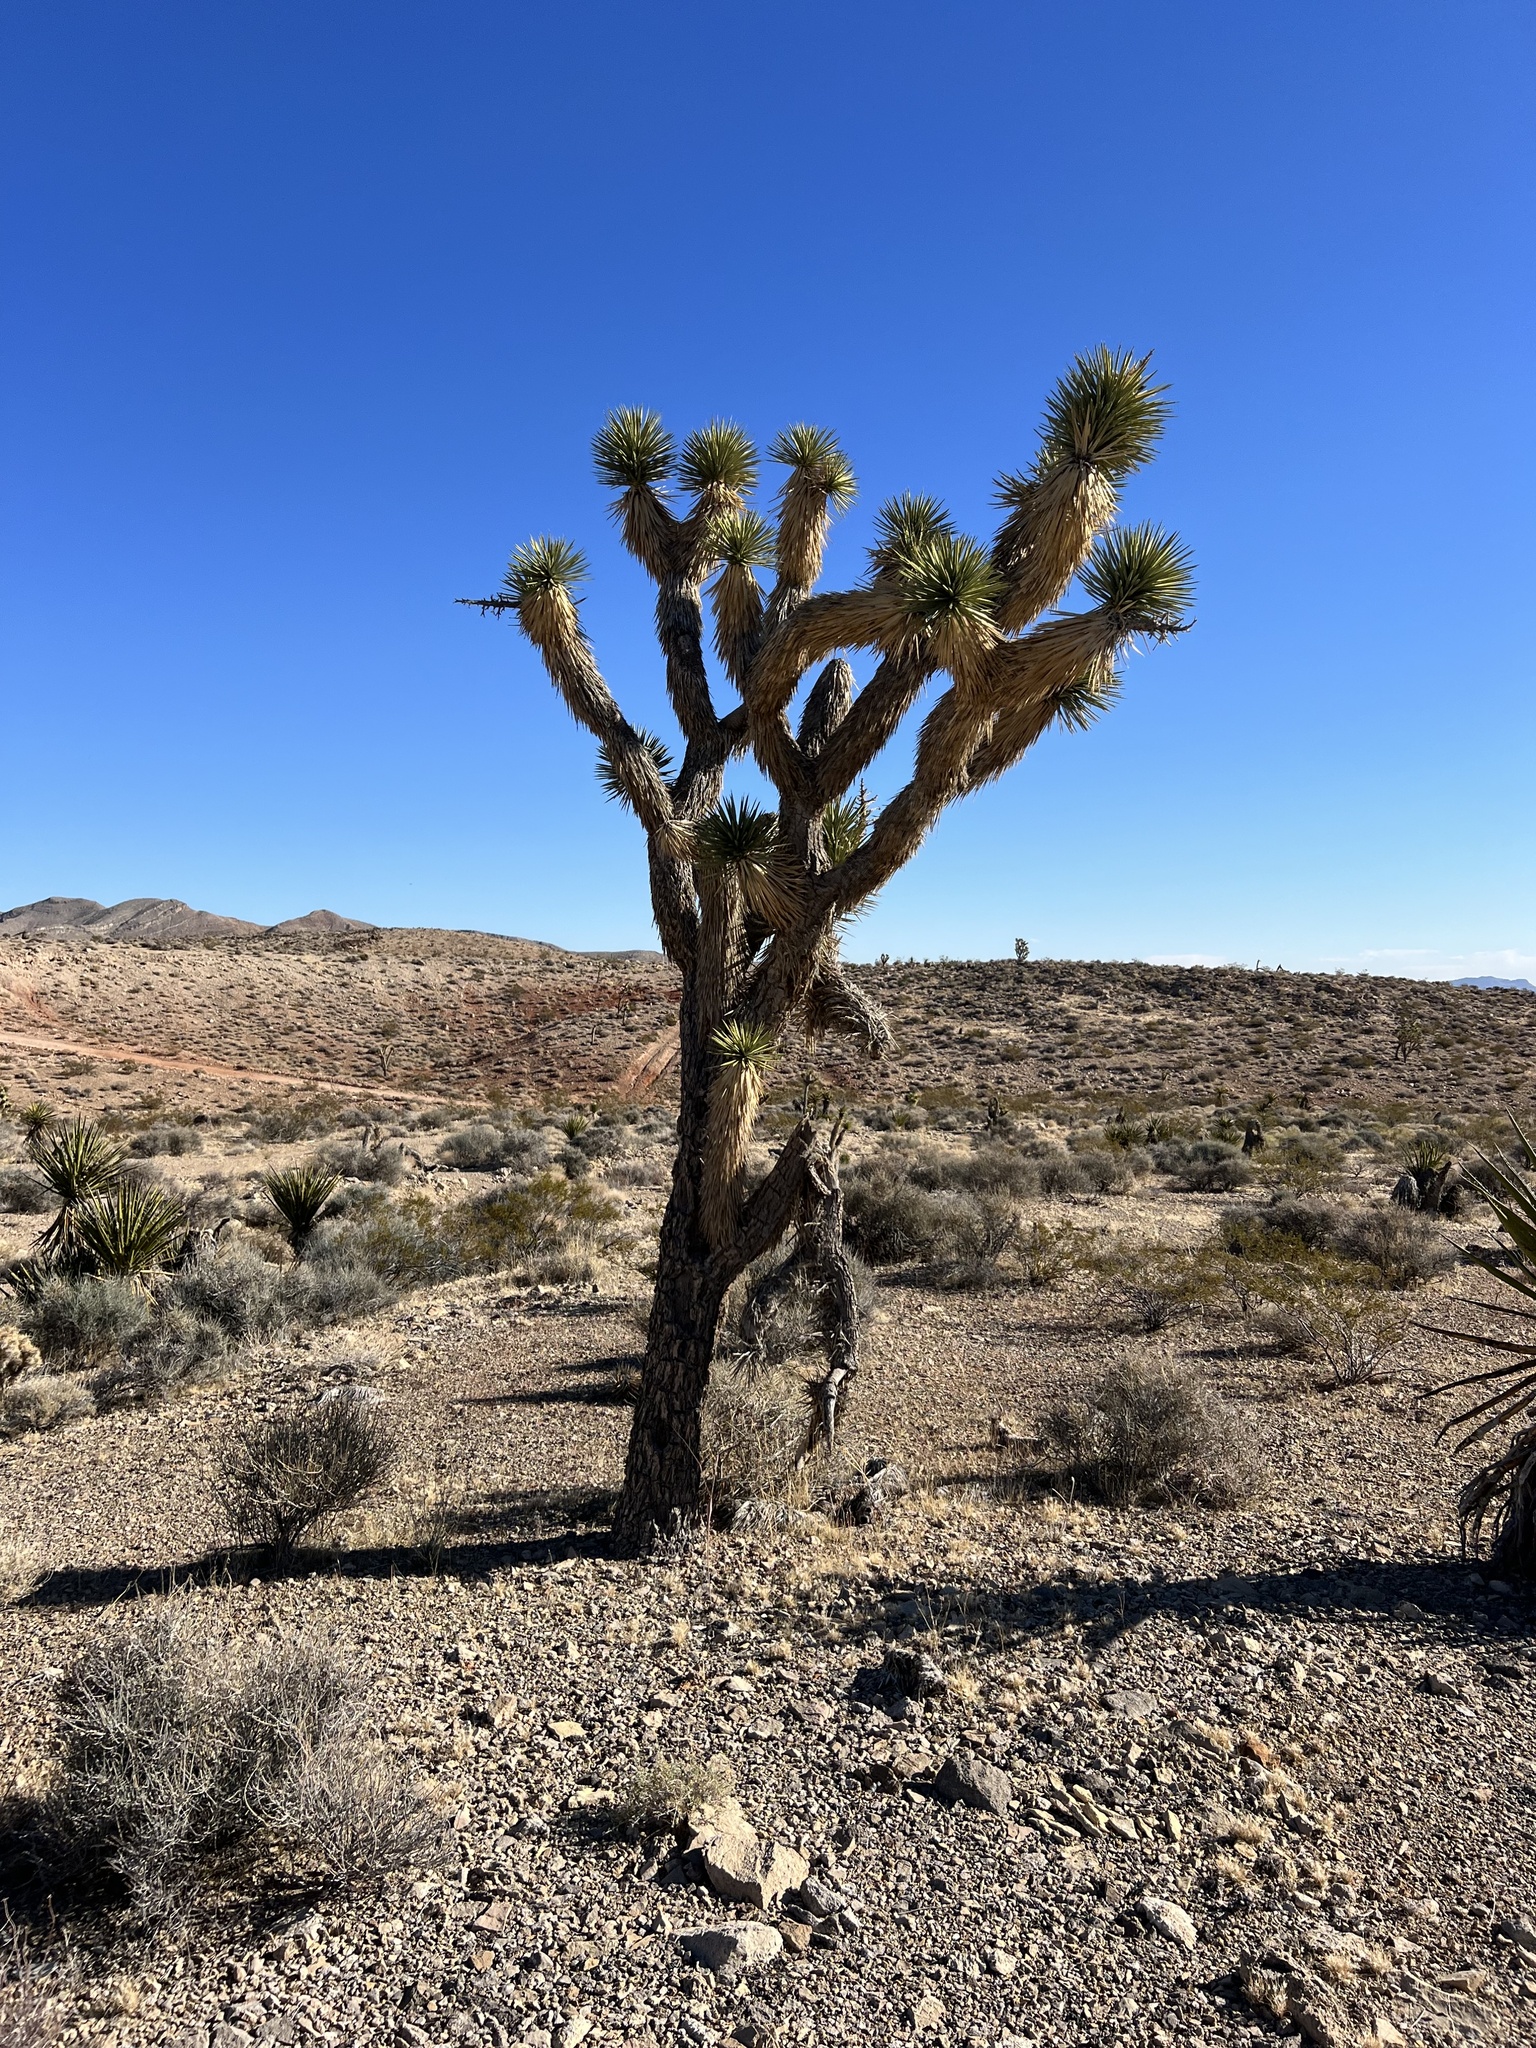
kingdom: Plantae
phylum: Tracheophyta
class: Liliopsida
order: Asparagales
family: Asparagaceae
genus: Yucca
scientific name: Yucca brevifolia
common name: Joshua tree
